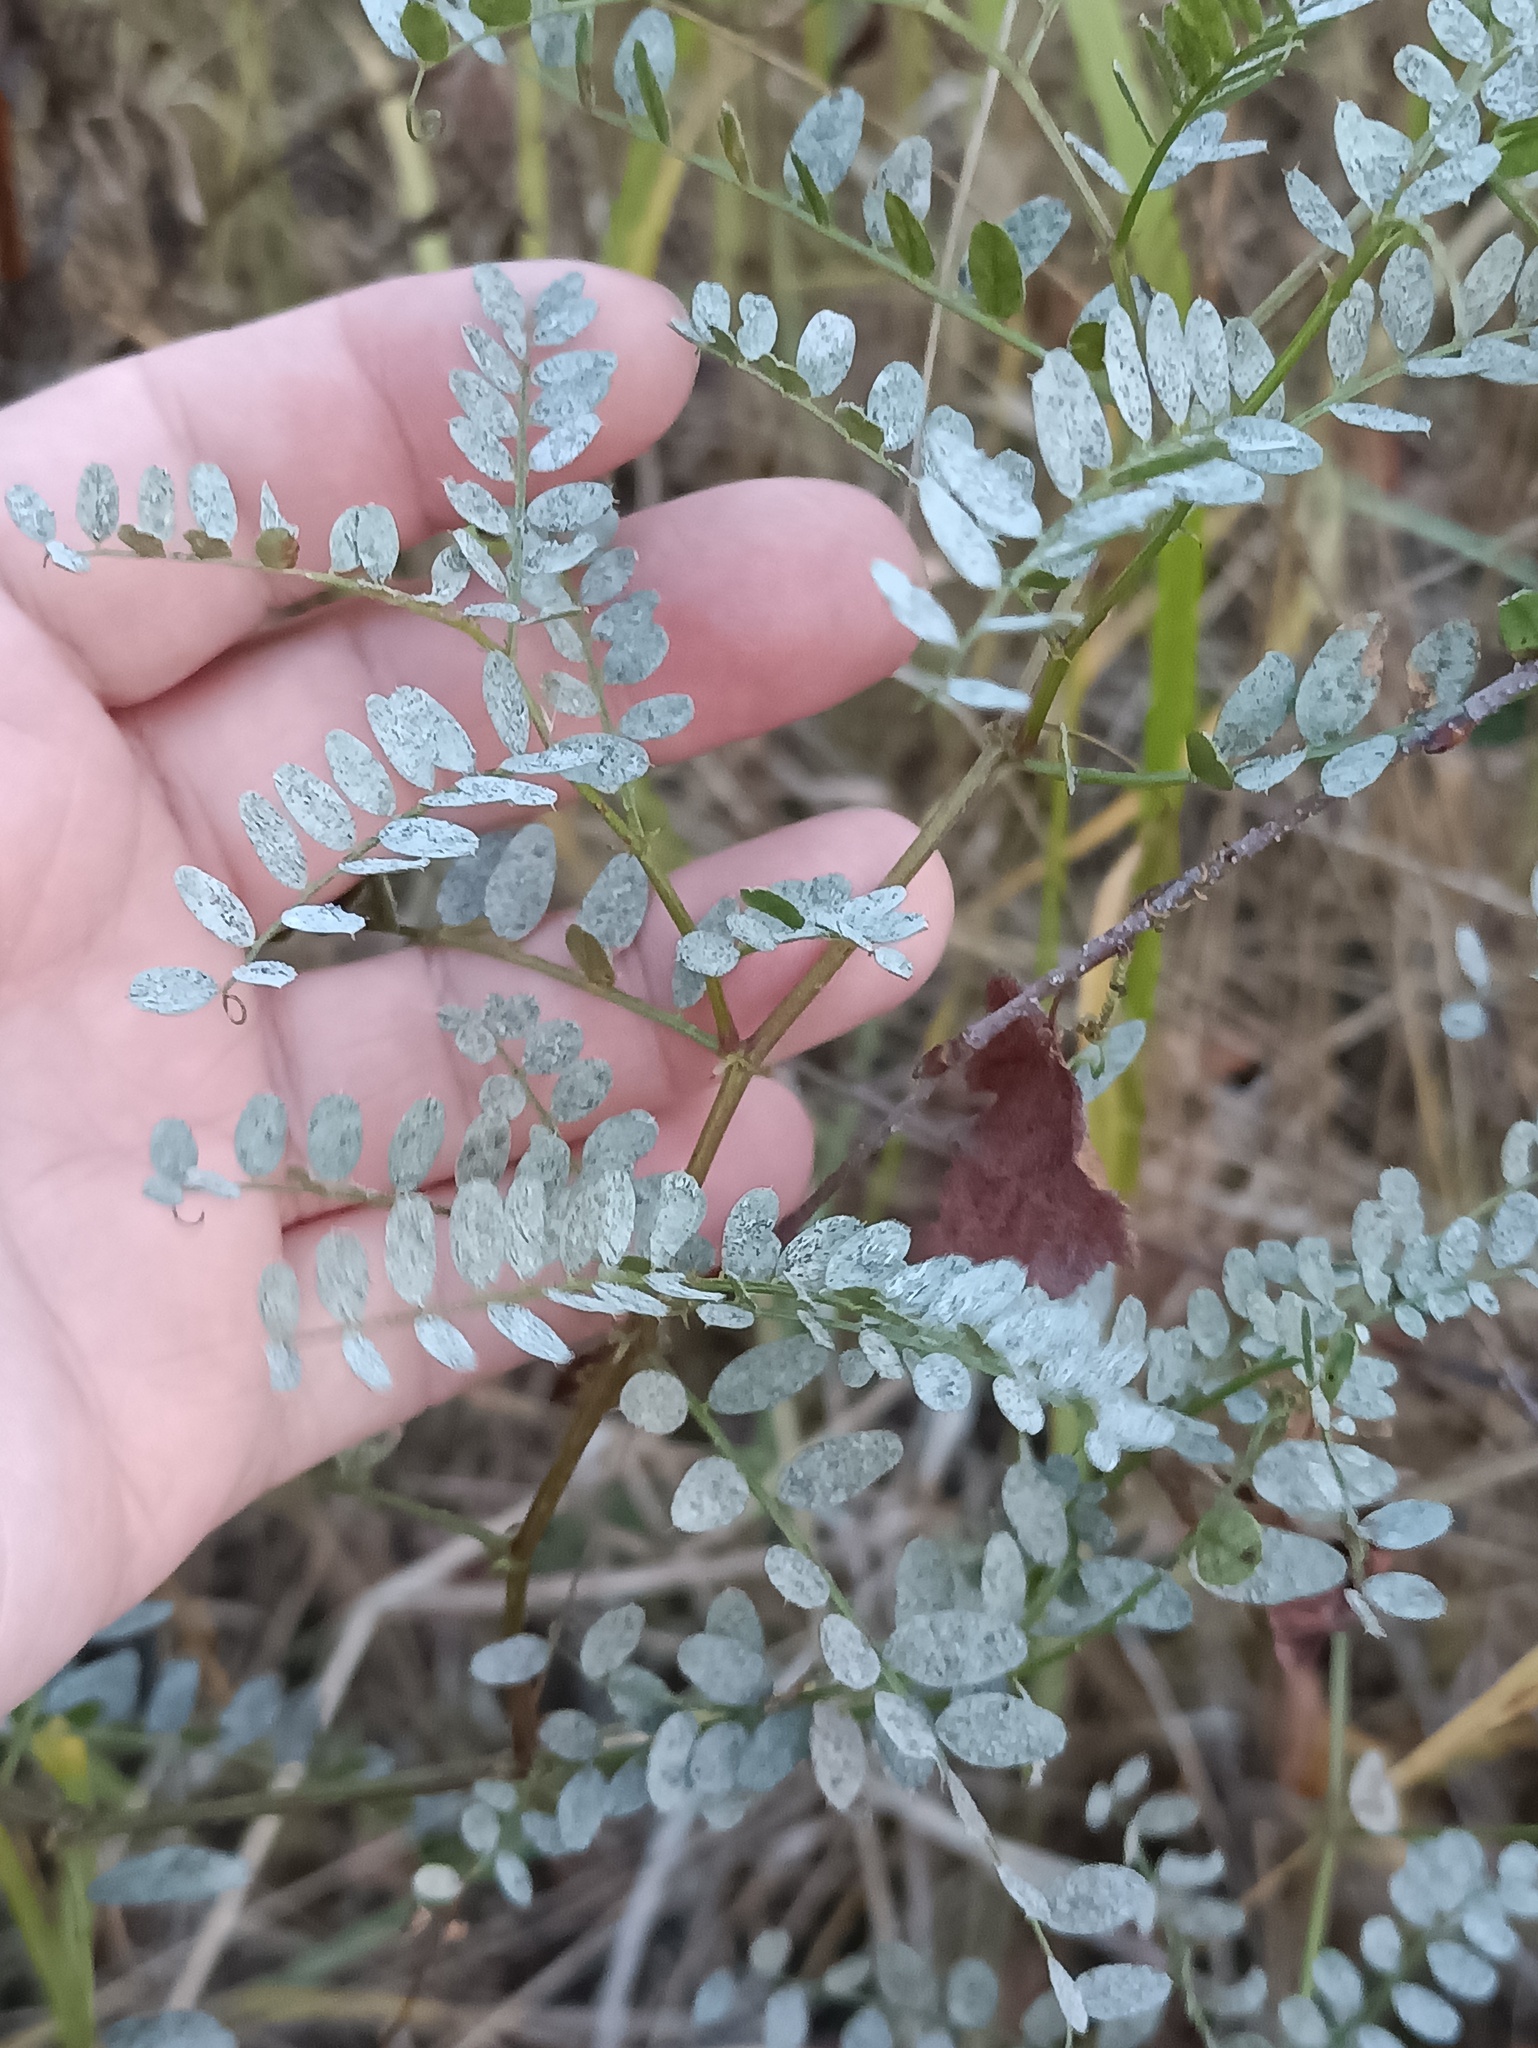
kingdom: Plantae
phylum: Tracheophyta
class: Magnoliopsida
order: Fabales
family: Fabaceae
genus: Vicia
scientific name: Vicia sylvatica
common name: Wood vetch
